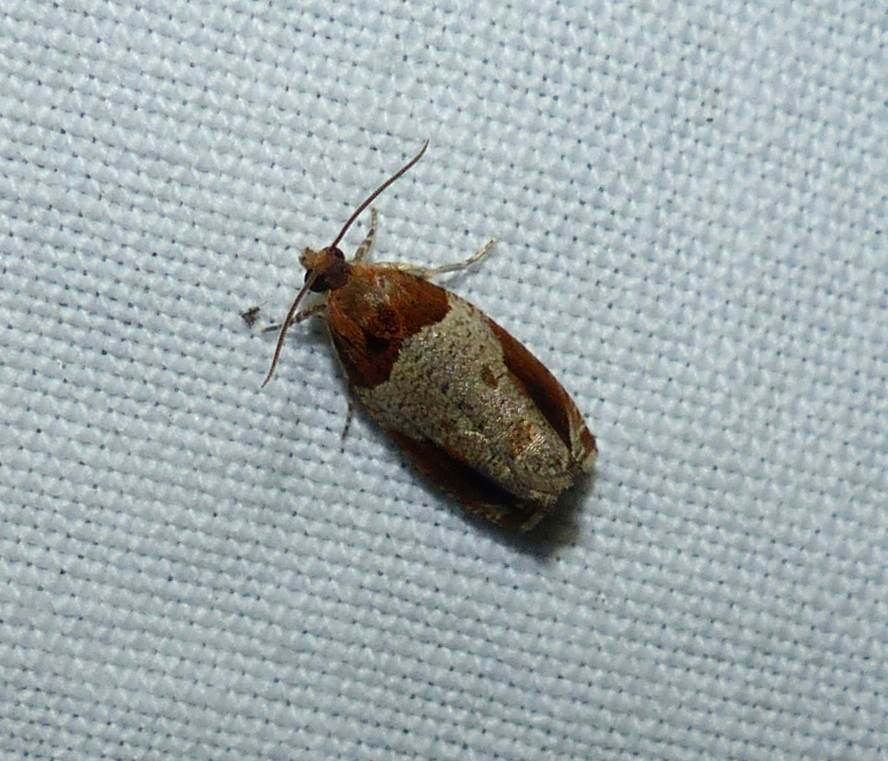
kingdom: Animalia
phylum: Arthropoda
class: Insecta
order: Lepidoptera
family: Tortricidae
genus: Olethreutes
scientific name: Olethreutes ferriferana
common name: Hydrangea leaftier moth
